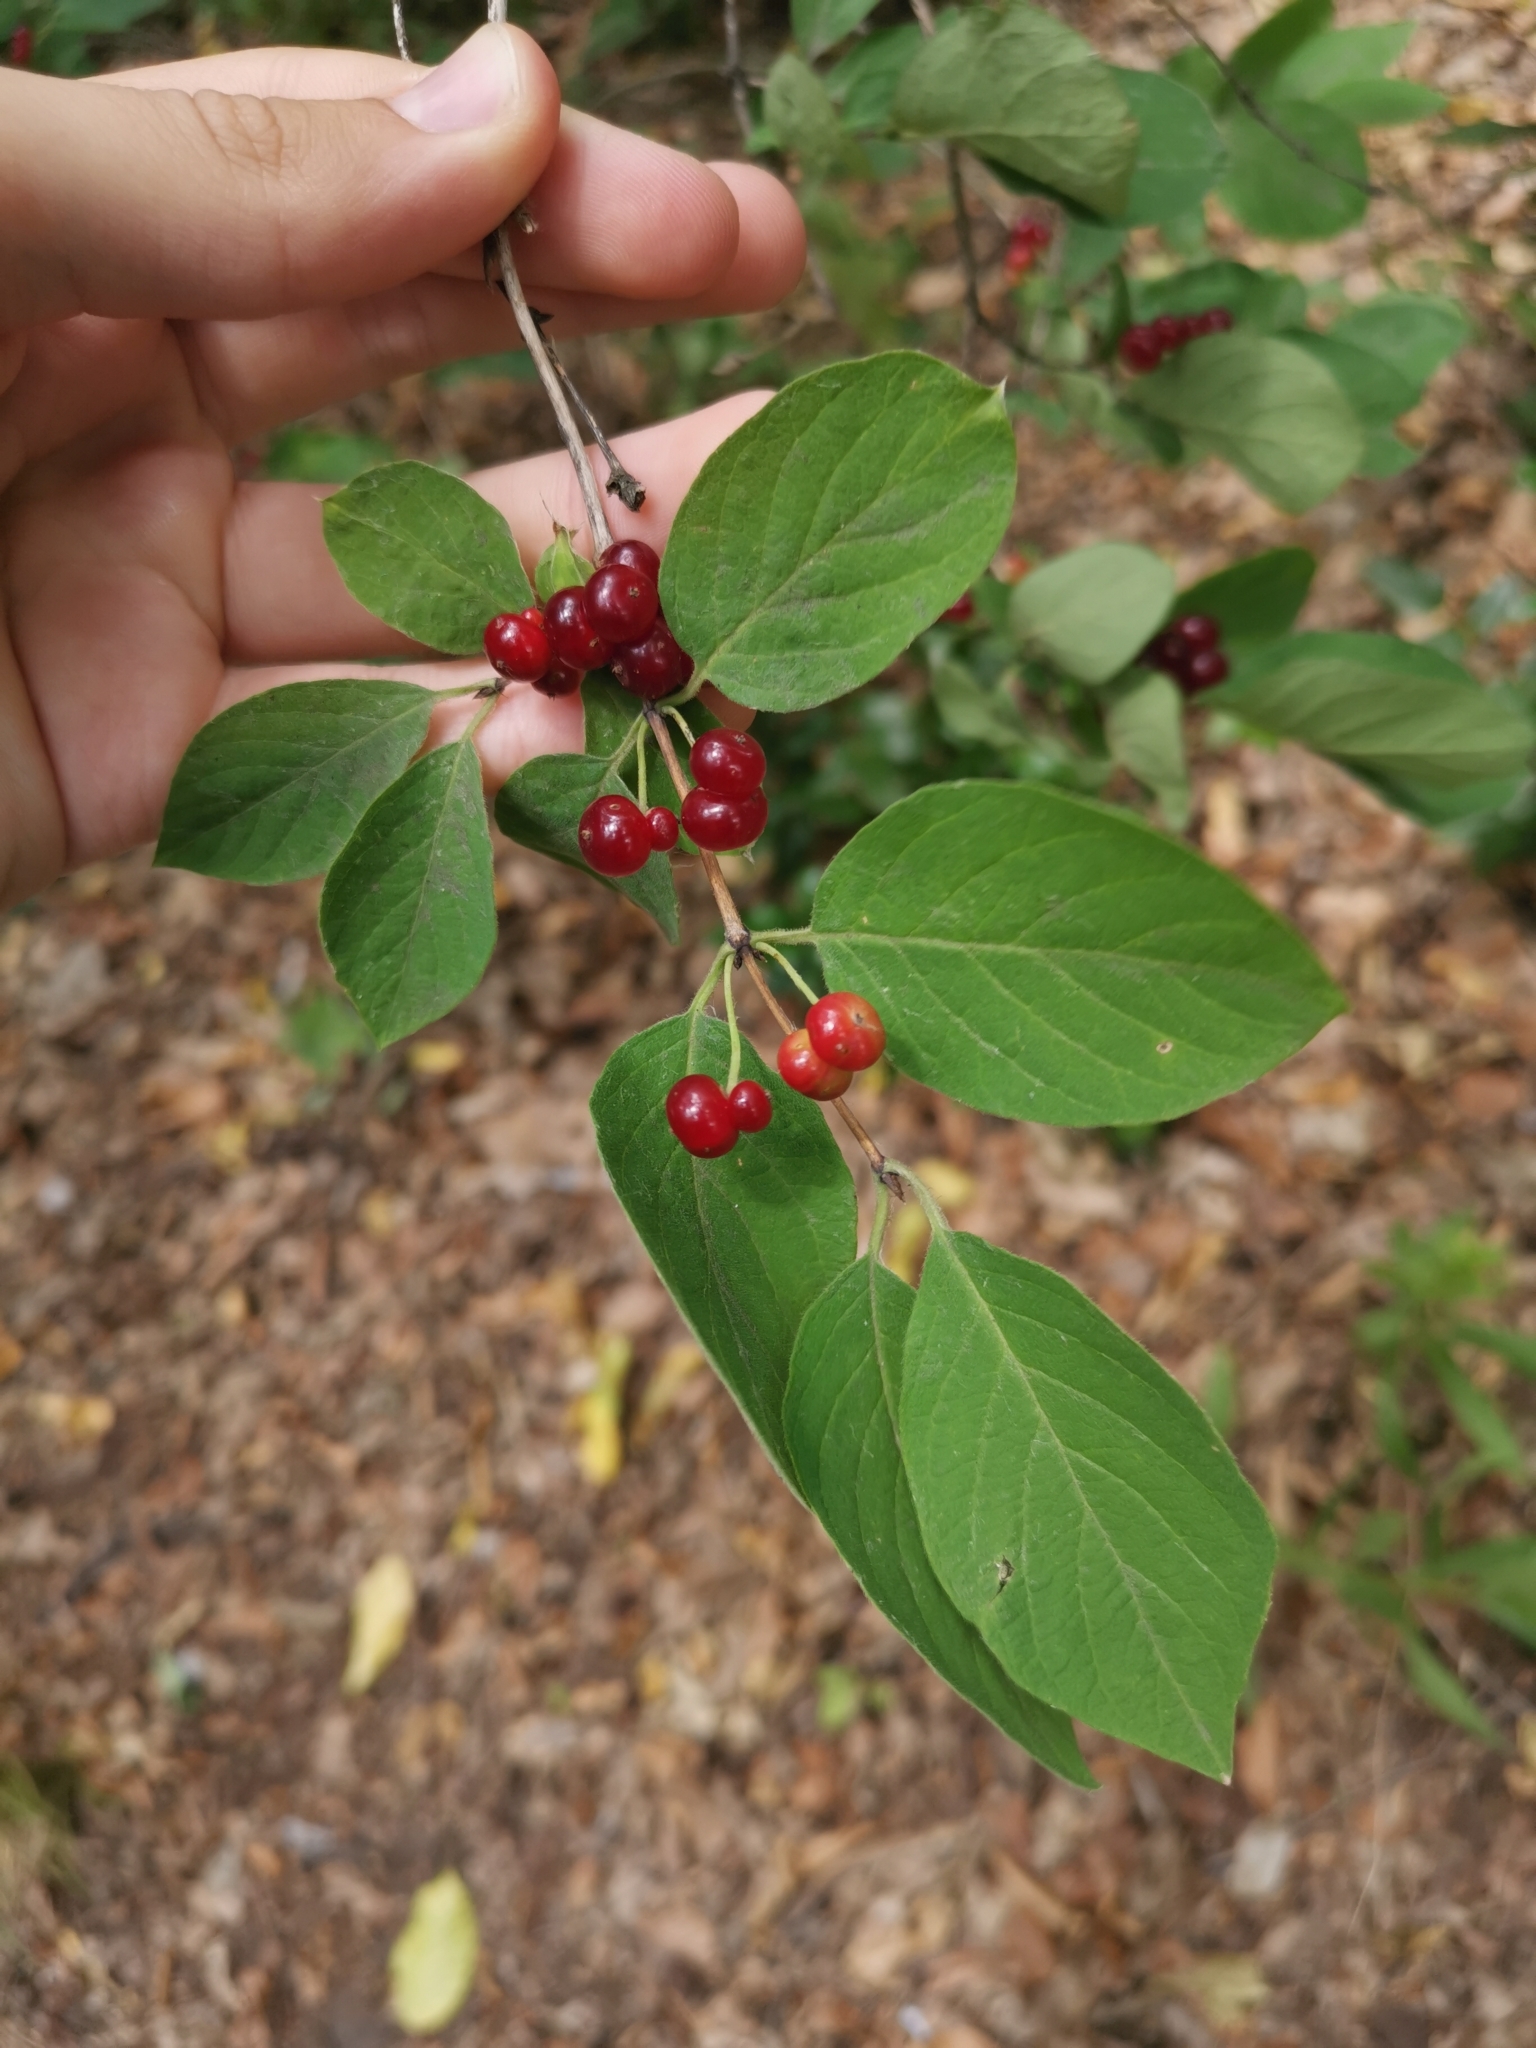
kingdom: Plantae
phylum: Tracheophyta
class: Magnoliopsida
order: Dipsacales
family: Caprifoliaceae
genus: Lonicera
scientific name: Lonicera xylosteum
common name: Fly honeysuckle
